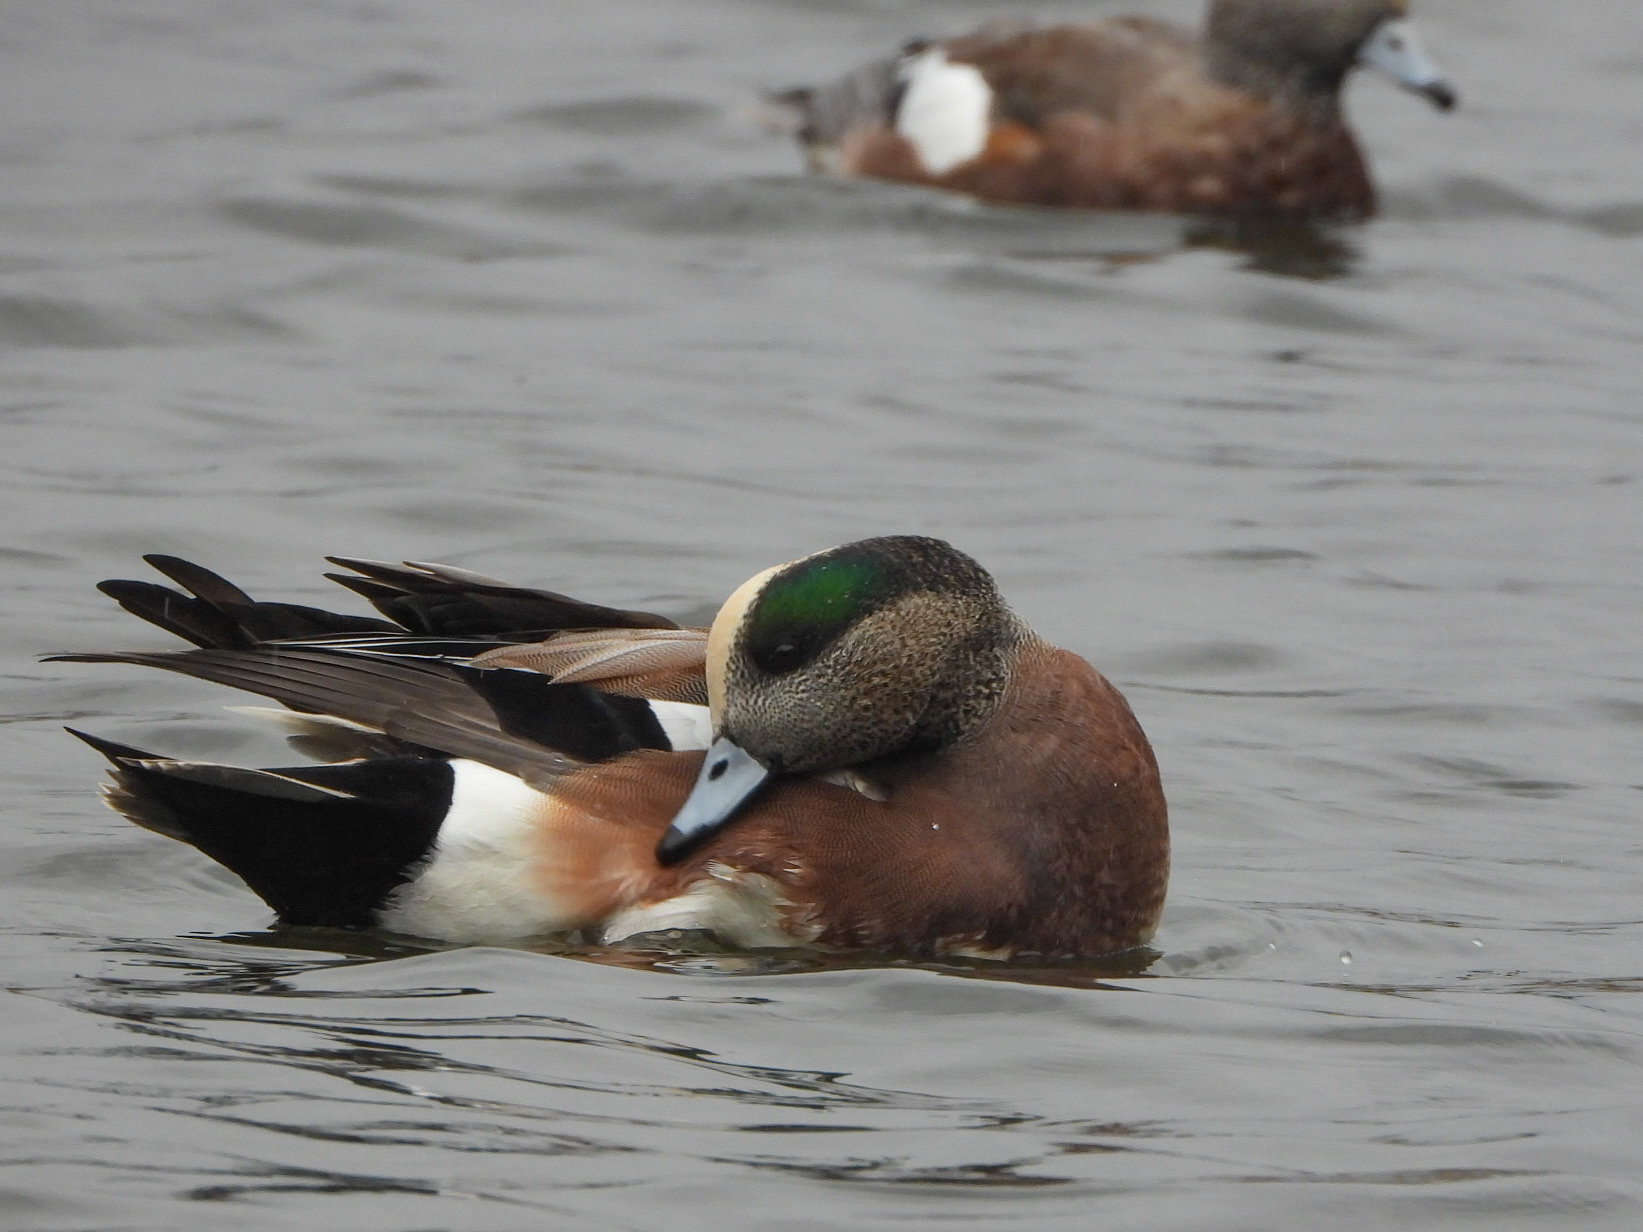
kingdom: Animalia
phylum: Chordata
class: Aves
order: Anseriformes
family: Anatidae
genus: Mareca
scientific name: Mareca americana
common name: American wigeon
